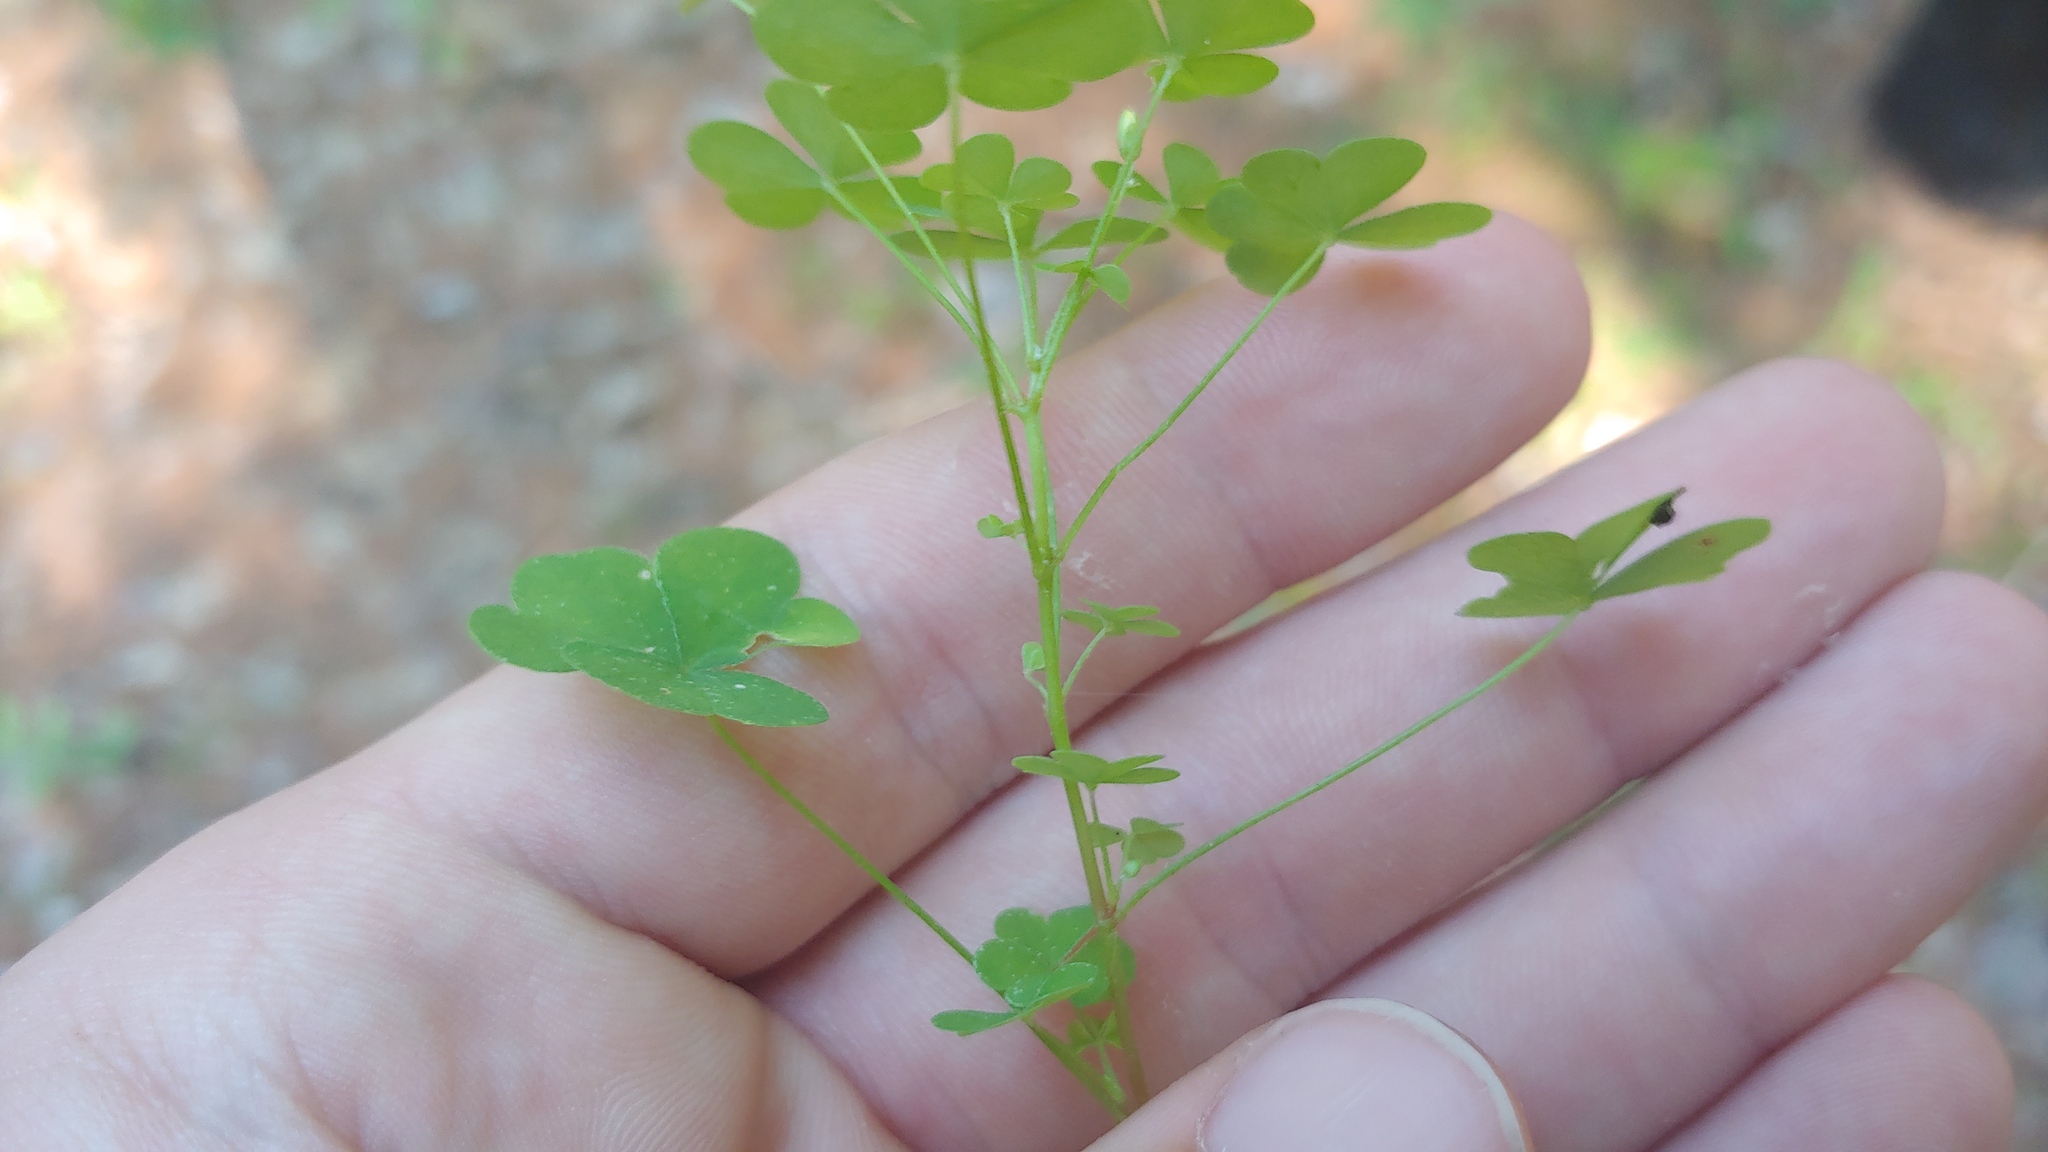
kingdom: Plantae
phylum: Tracheophyta
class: Magnoliopsida
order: Oxalidales
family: Oxalidaceae
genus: Oxalis
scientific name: Oxalis dillenii
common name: Sussex yellow-sorrel
